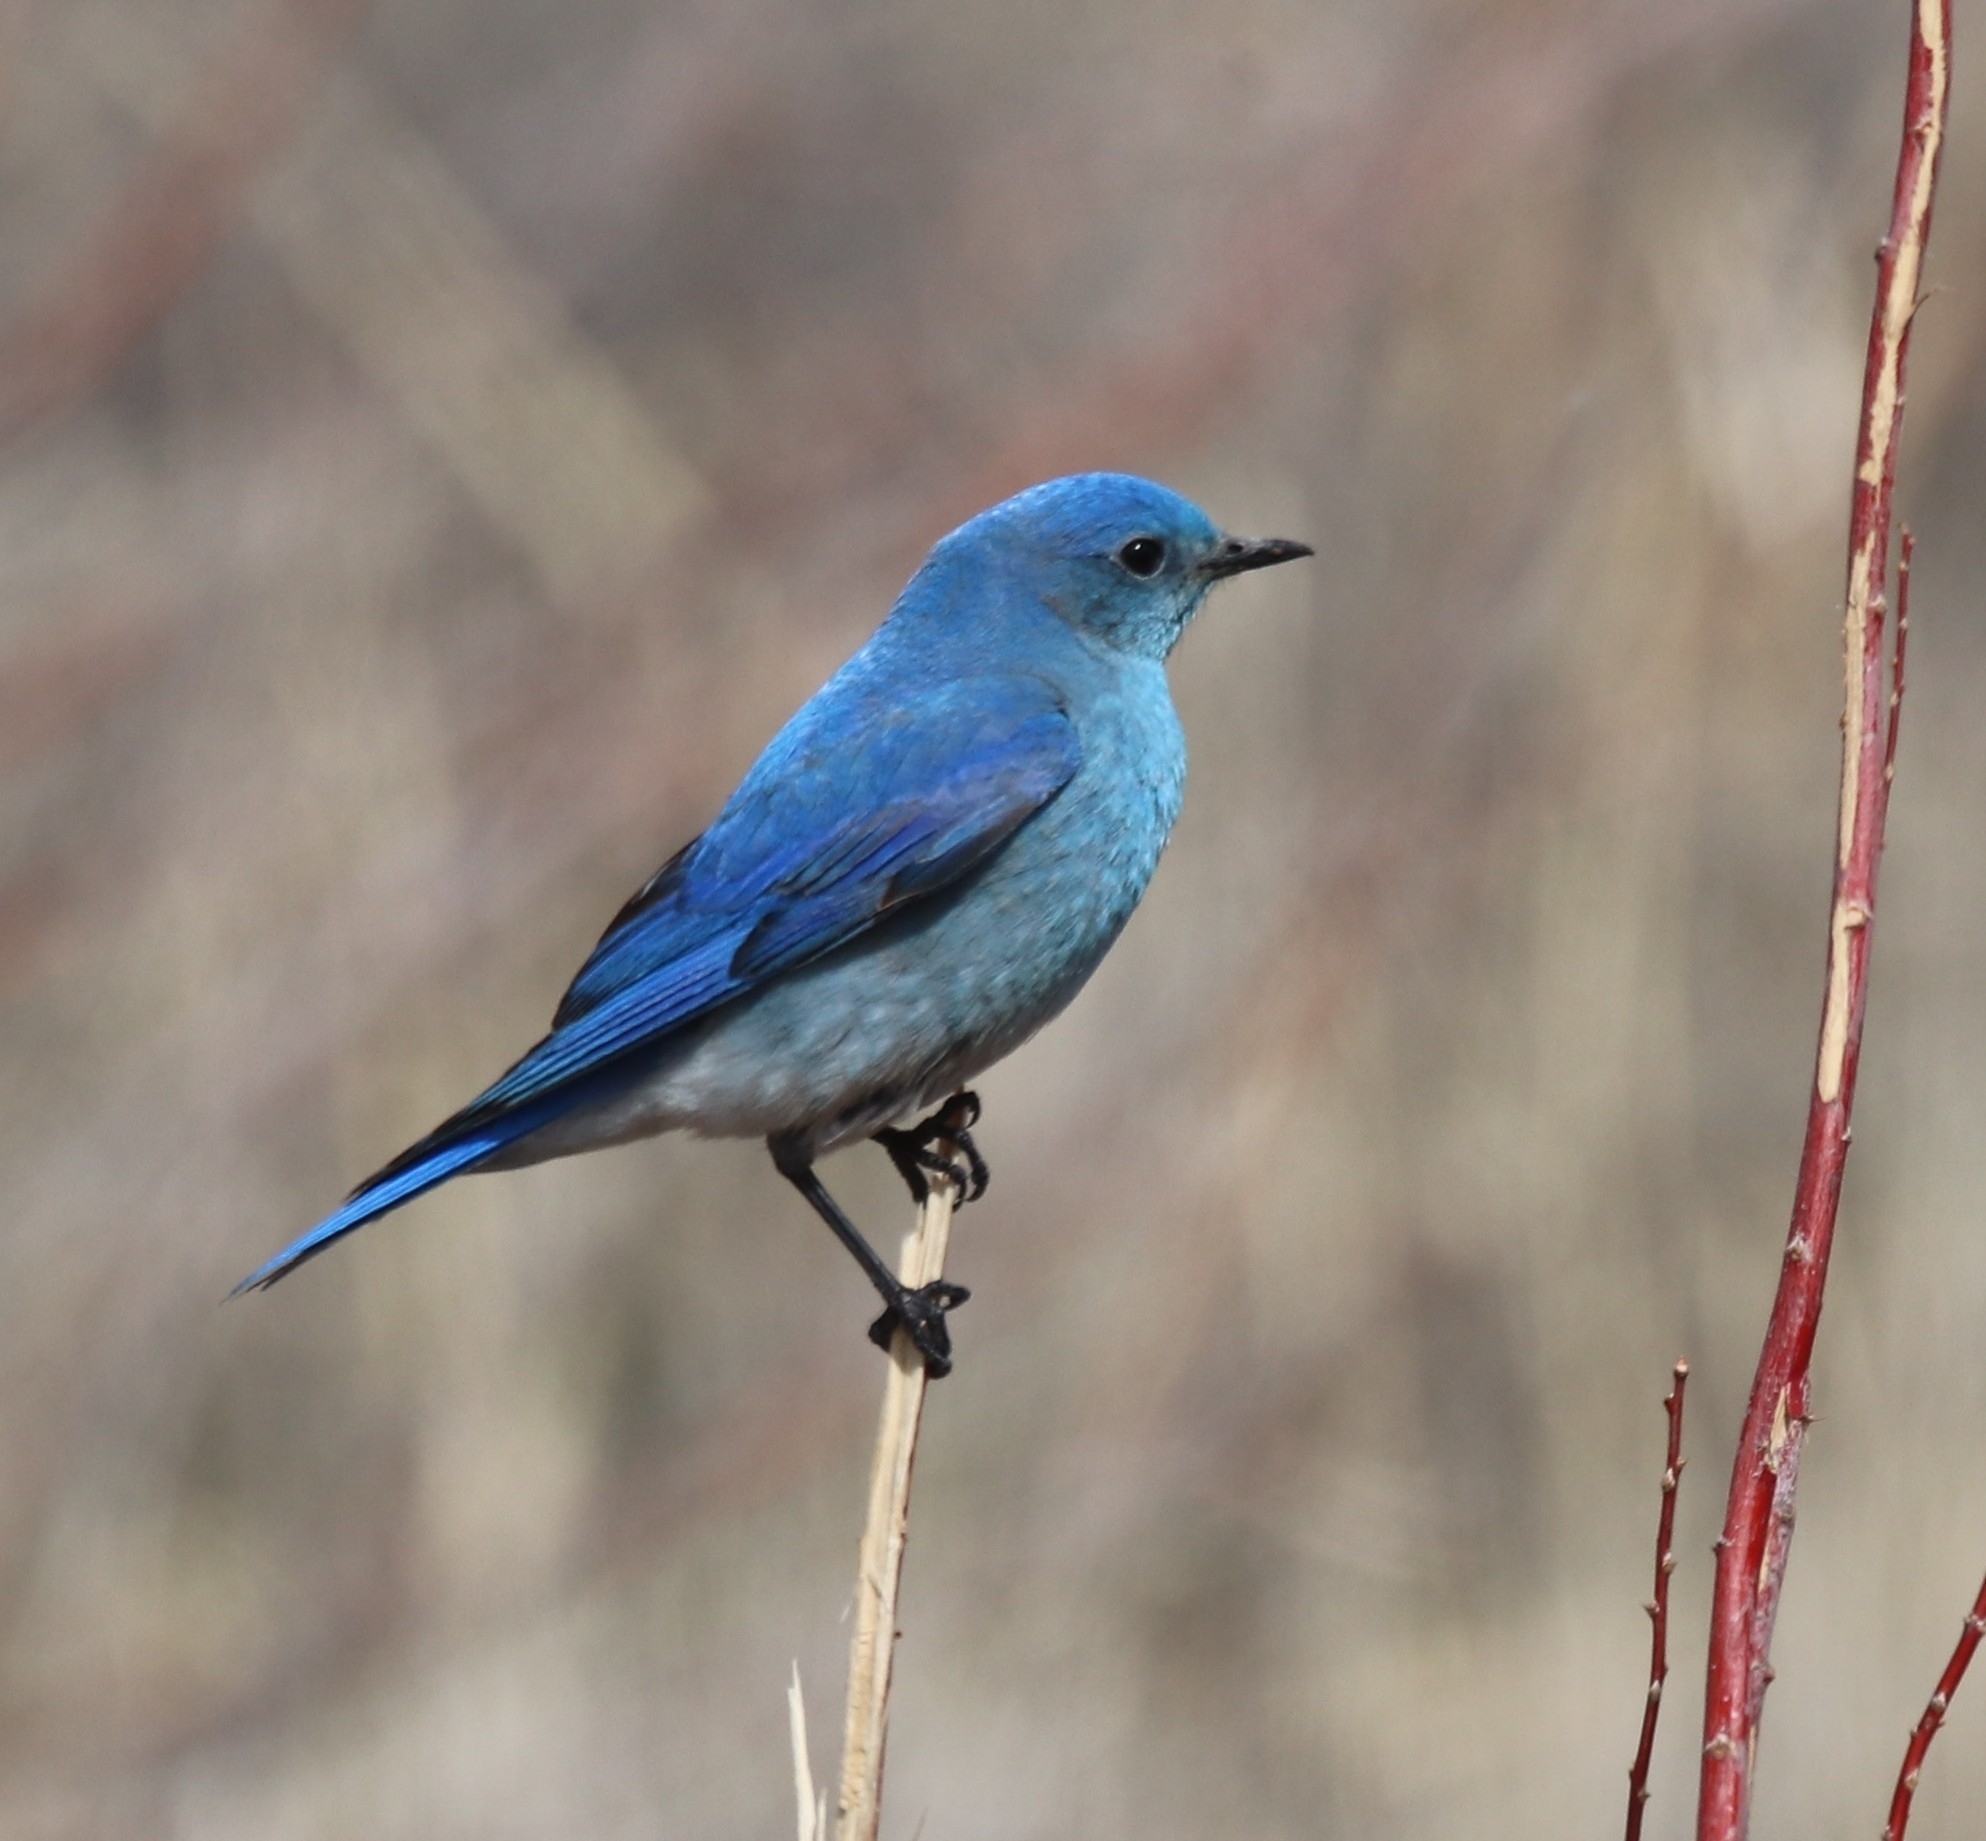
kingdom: Animalia
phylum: Chordata
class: Aves
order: Passeriformes
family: Turdidae
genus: Sialia
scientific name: Sialia currucoides
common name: Mountain bluebird
